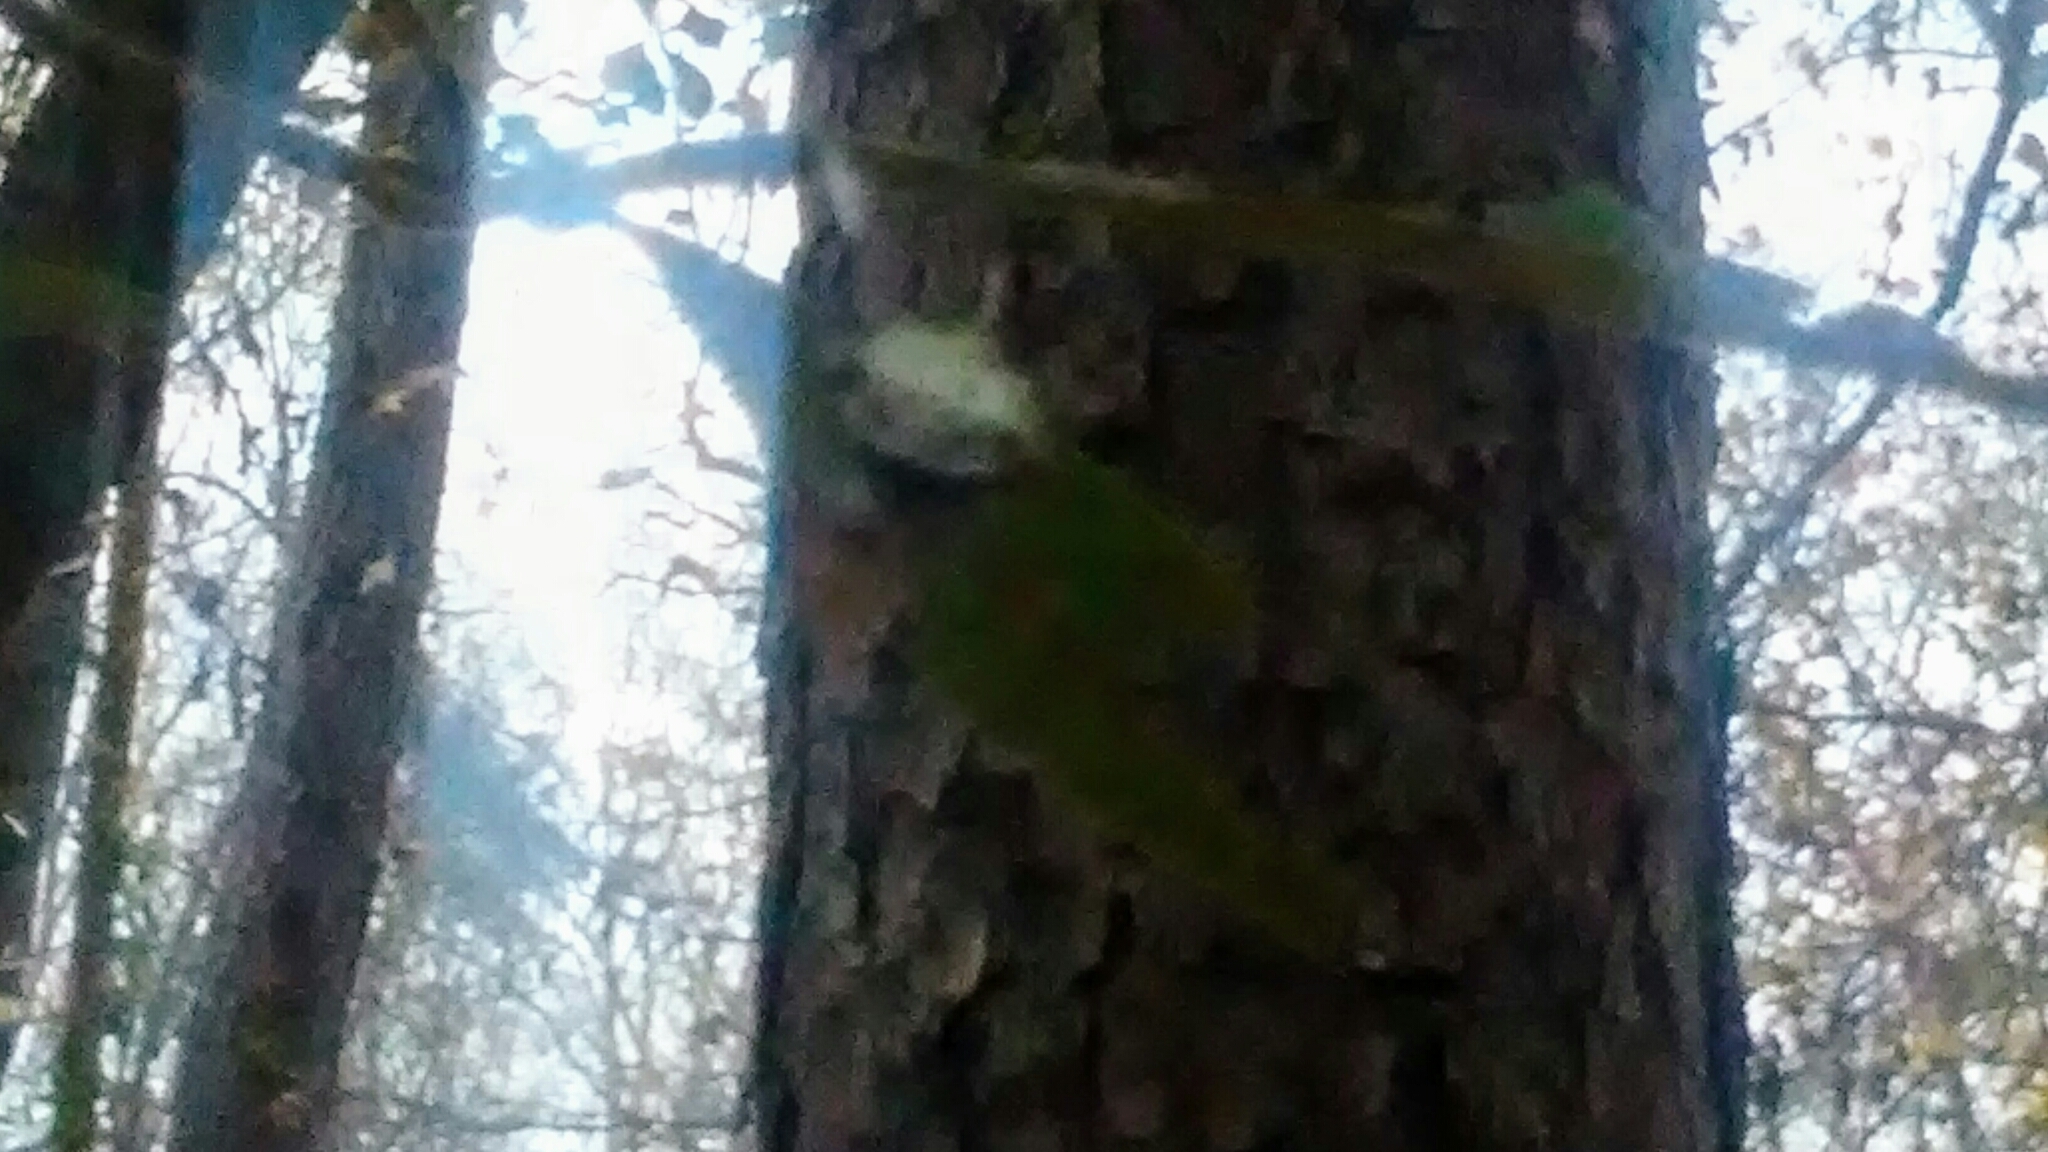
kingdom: Animalia
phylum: Arthropoda
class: Arachnida
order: Araneae
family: Araneidae
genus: Gasteracantha
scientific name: Gasteracantha cancriformis
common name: Orb weavers
